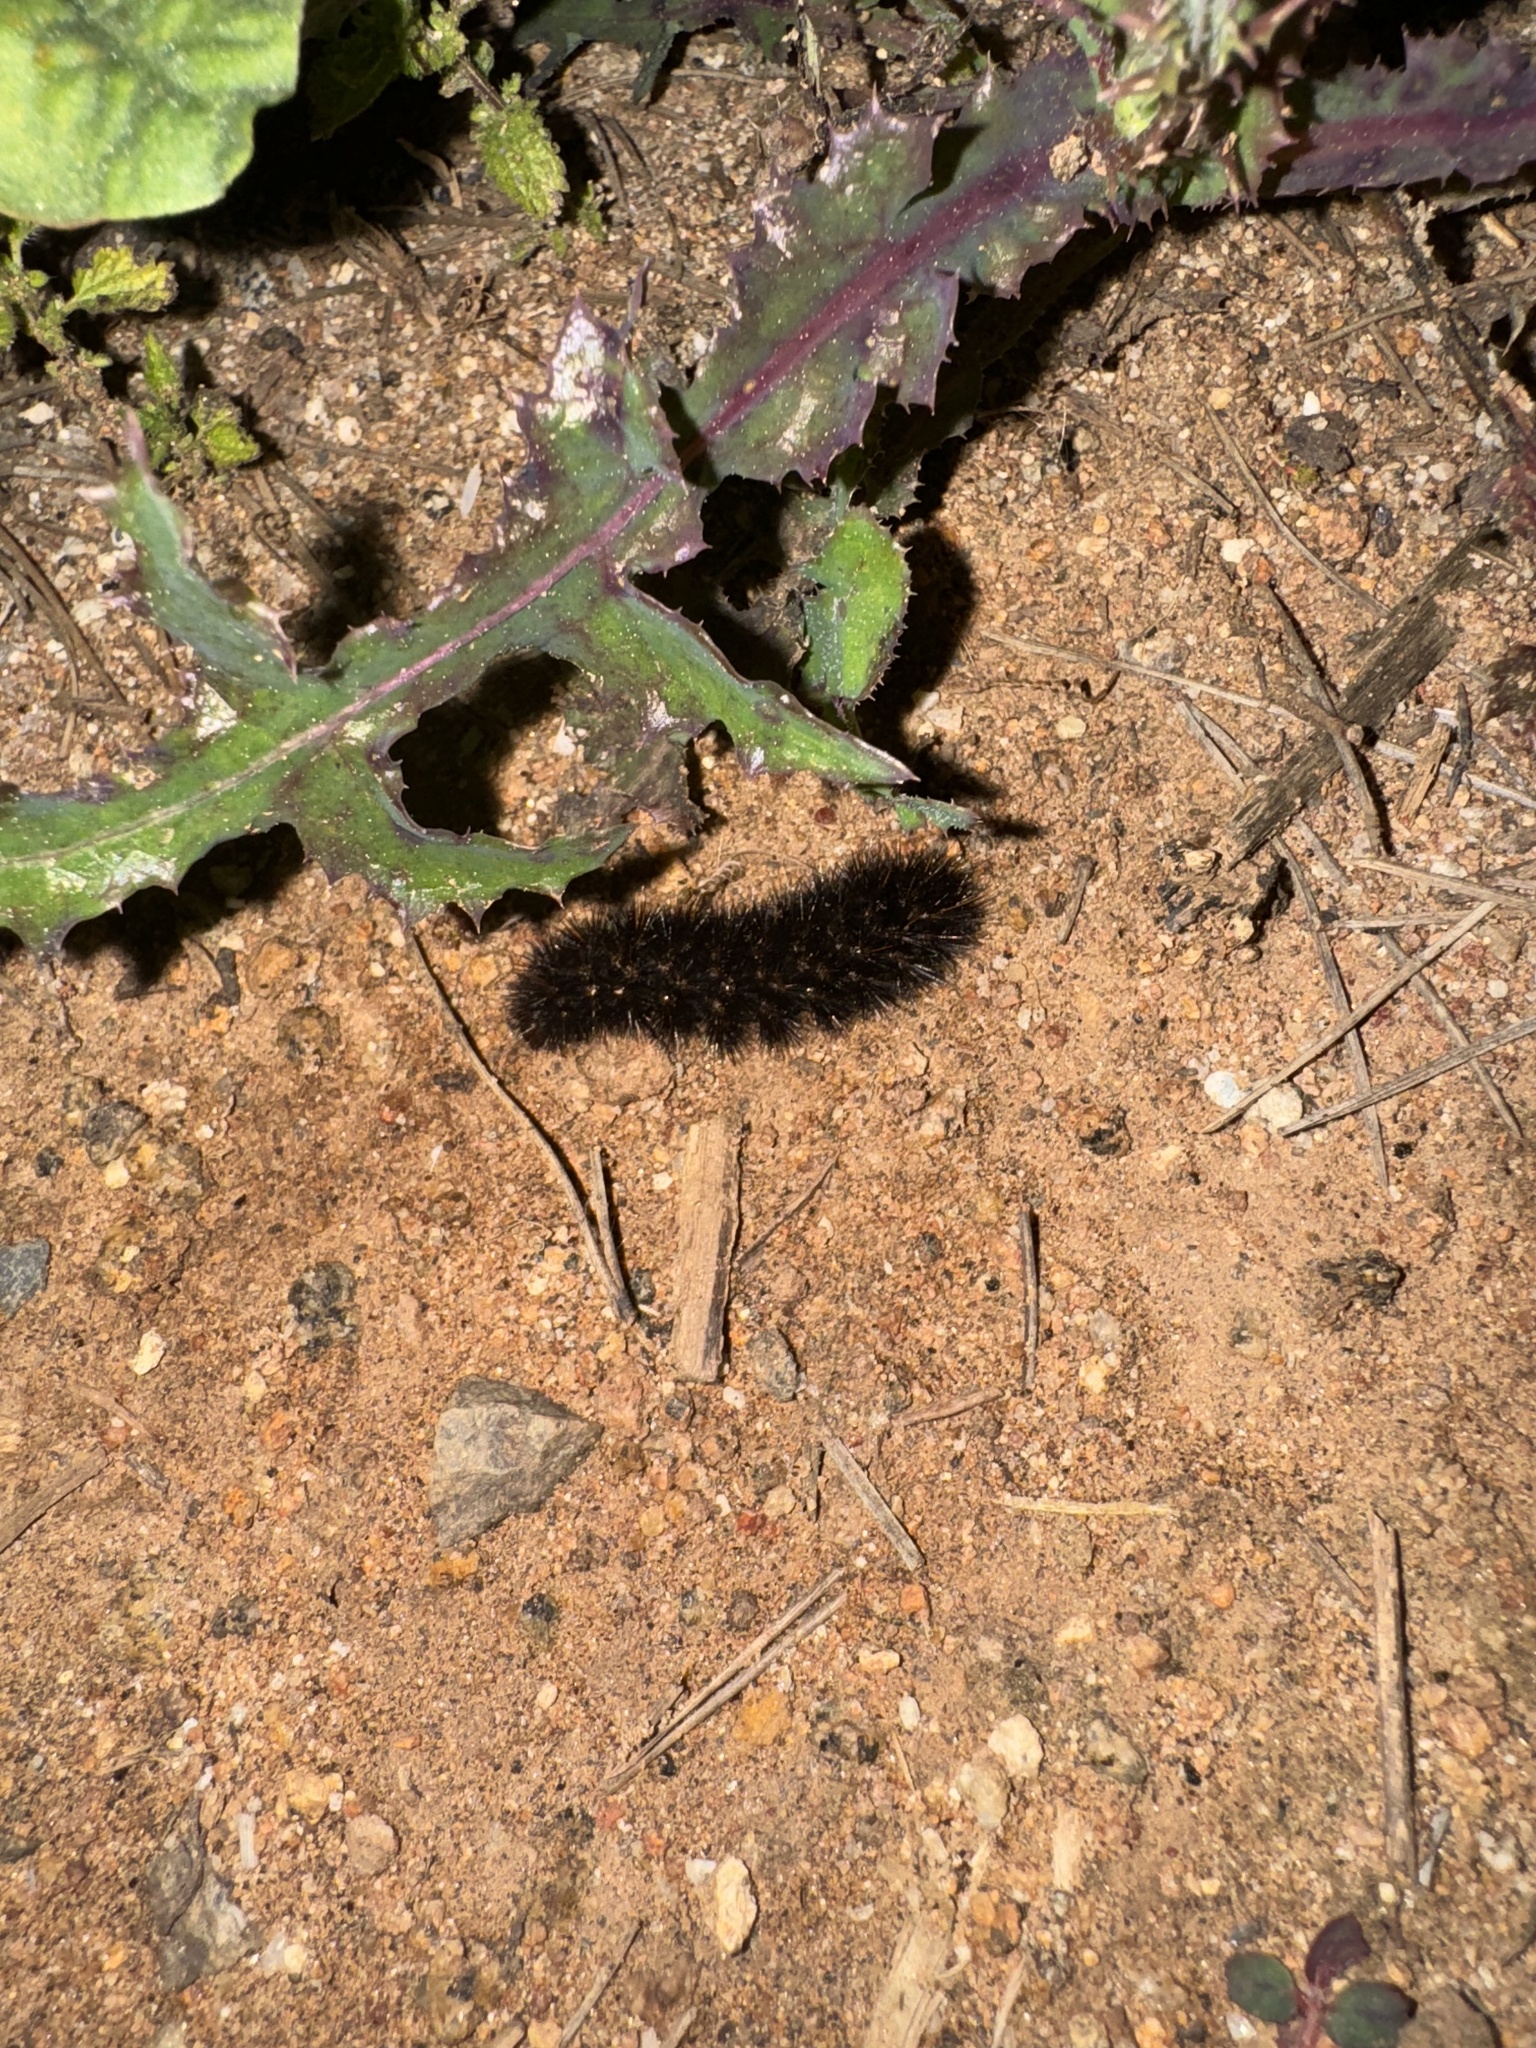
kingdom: Animalia
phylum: Arthropoda
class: Insecta
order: Lepidoptera
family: Erebidae
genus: Hypercompe
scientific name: Hypercompe permaculata
